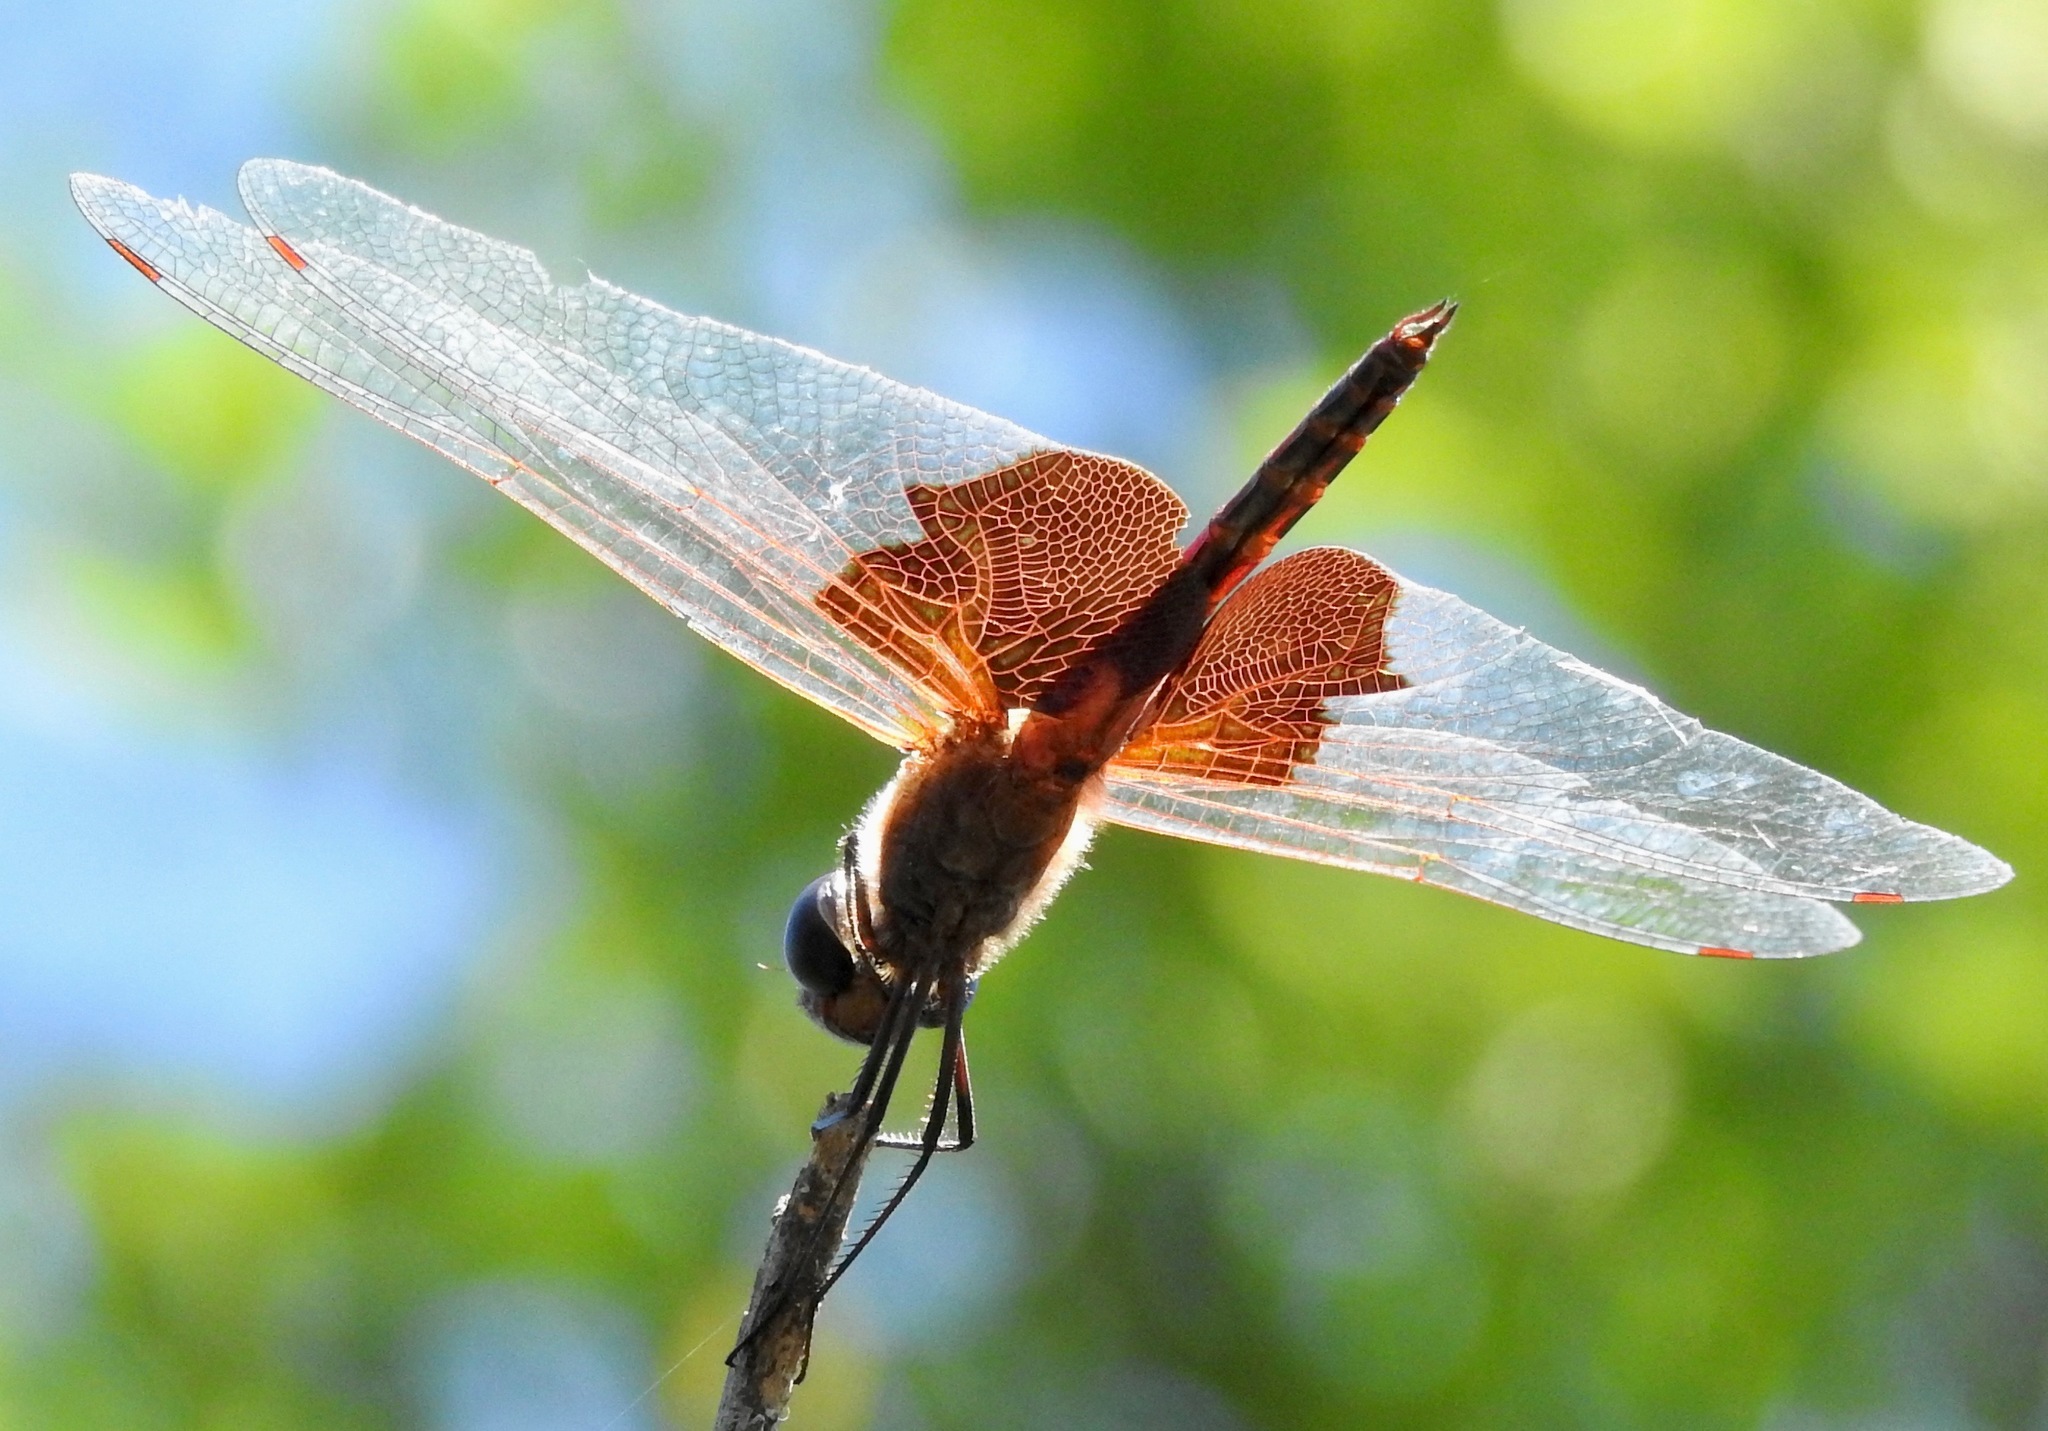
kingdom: Animalia
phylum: Arthropoda
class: Insecta
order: Odonata
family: Libellulidae
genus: Tramea
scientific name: Tramea carolina
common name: Carolina saddlebags
